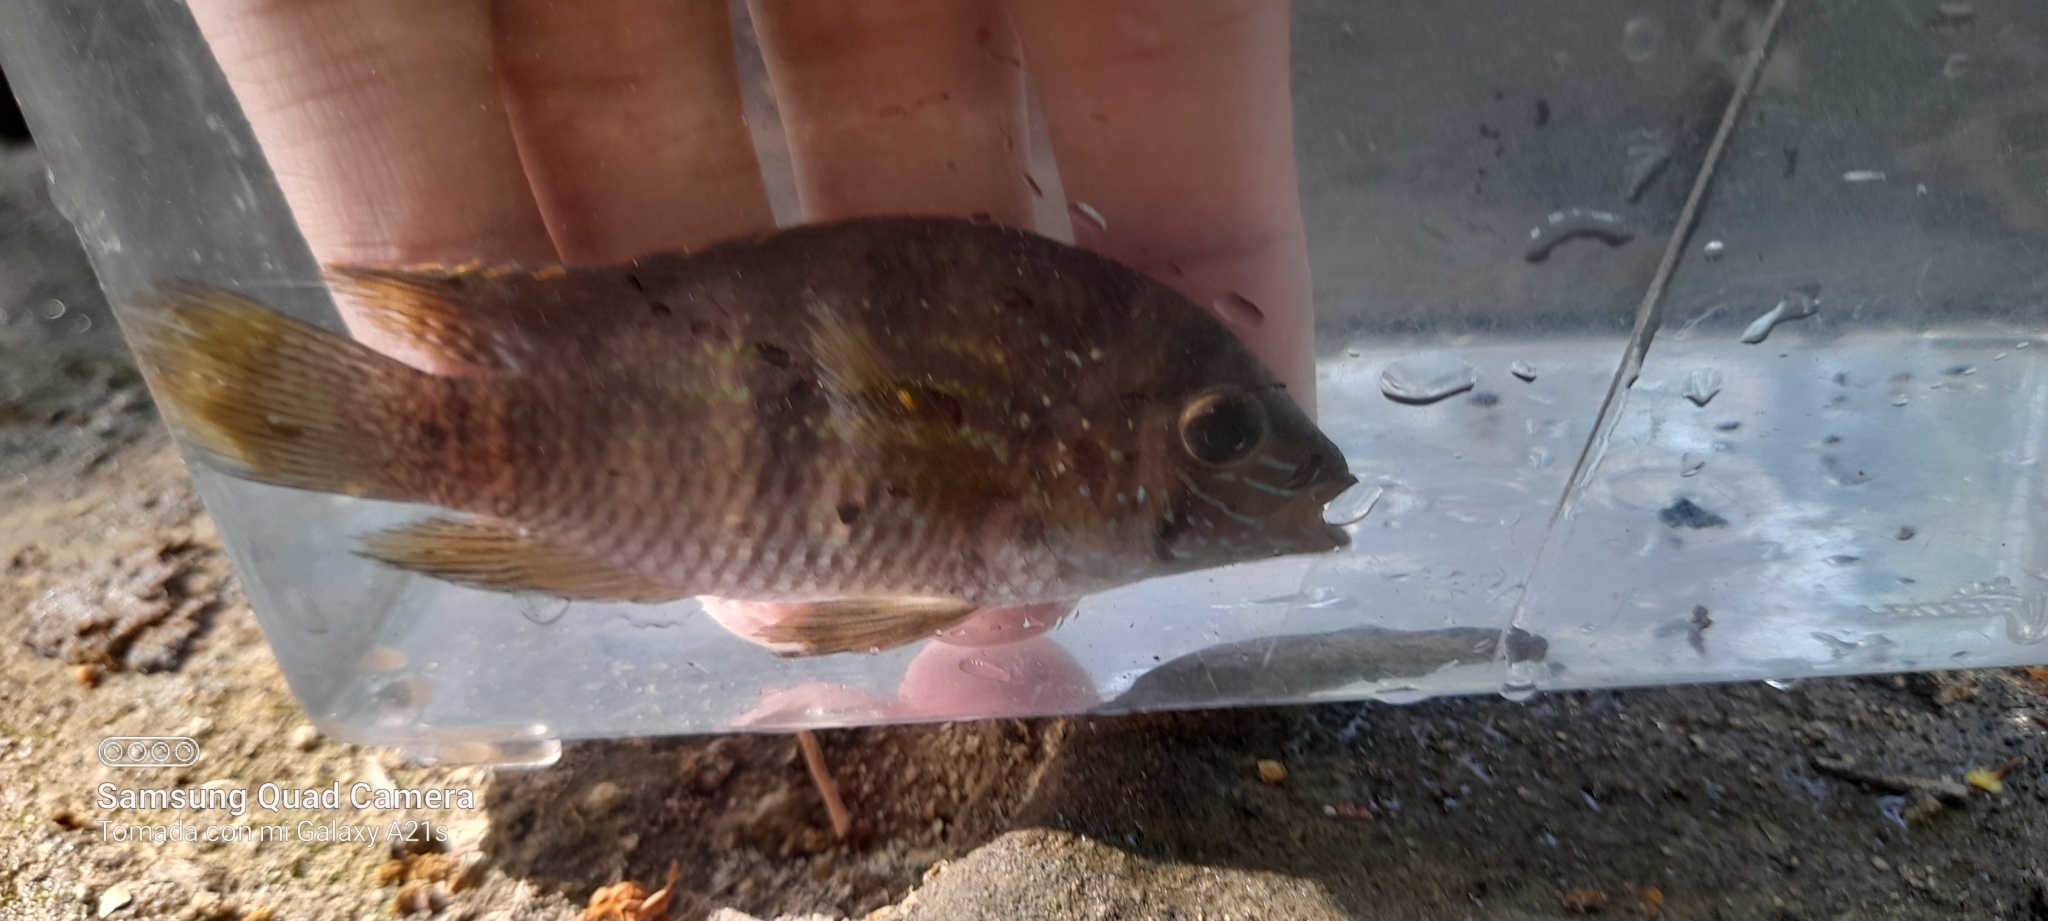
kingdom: Animalia
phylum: Chordata
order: Perciformes
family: Cichlidae
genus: Andinoacara
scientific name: Andinoacara coeruleopunctatus
